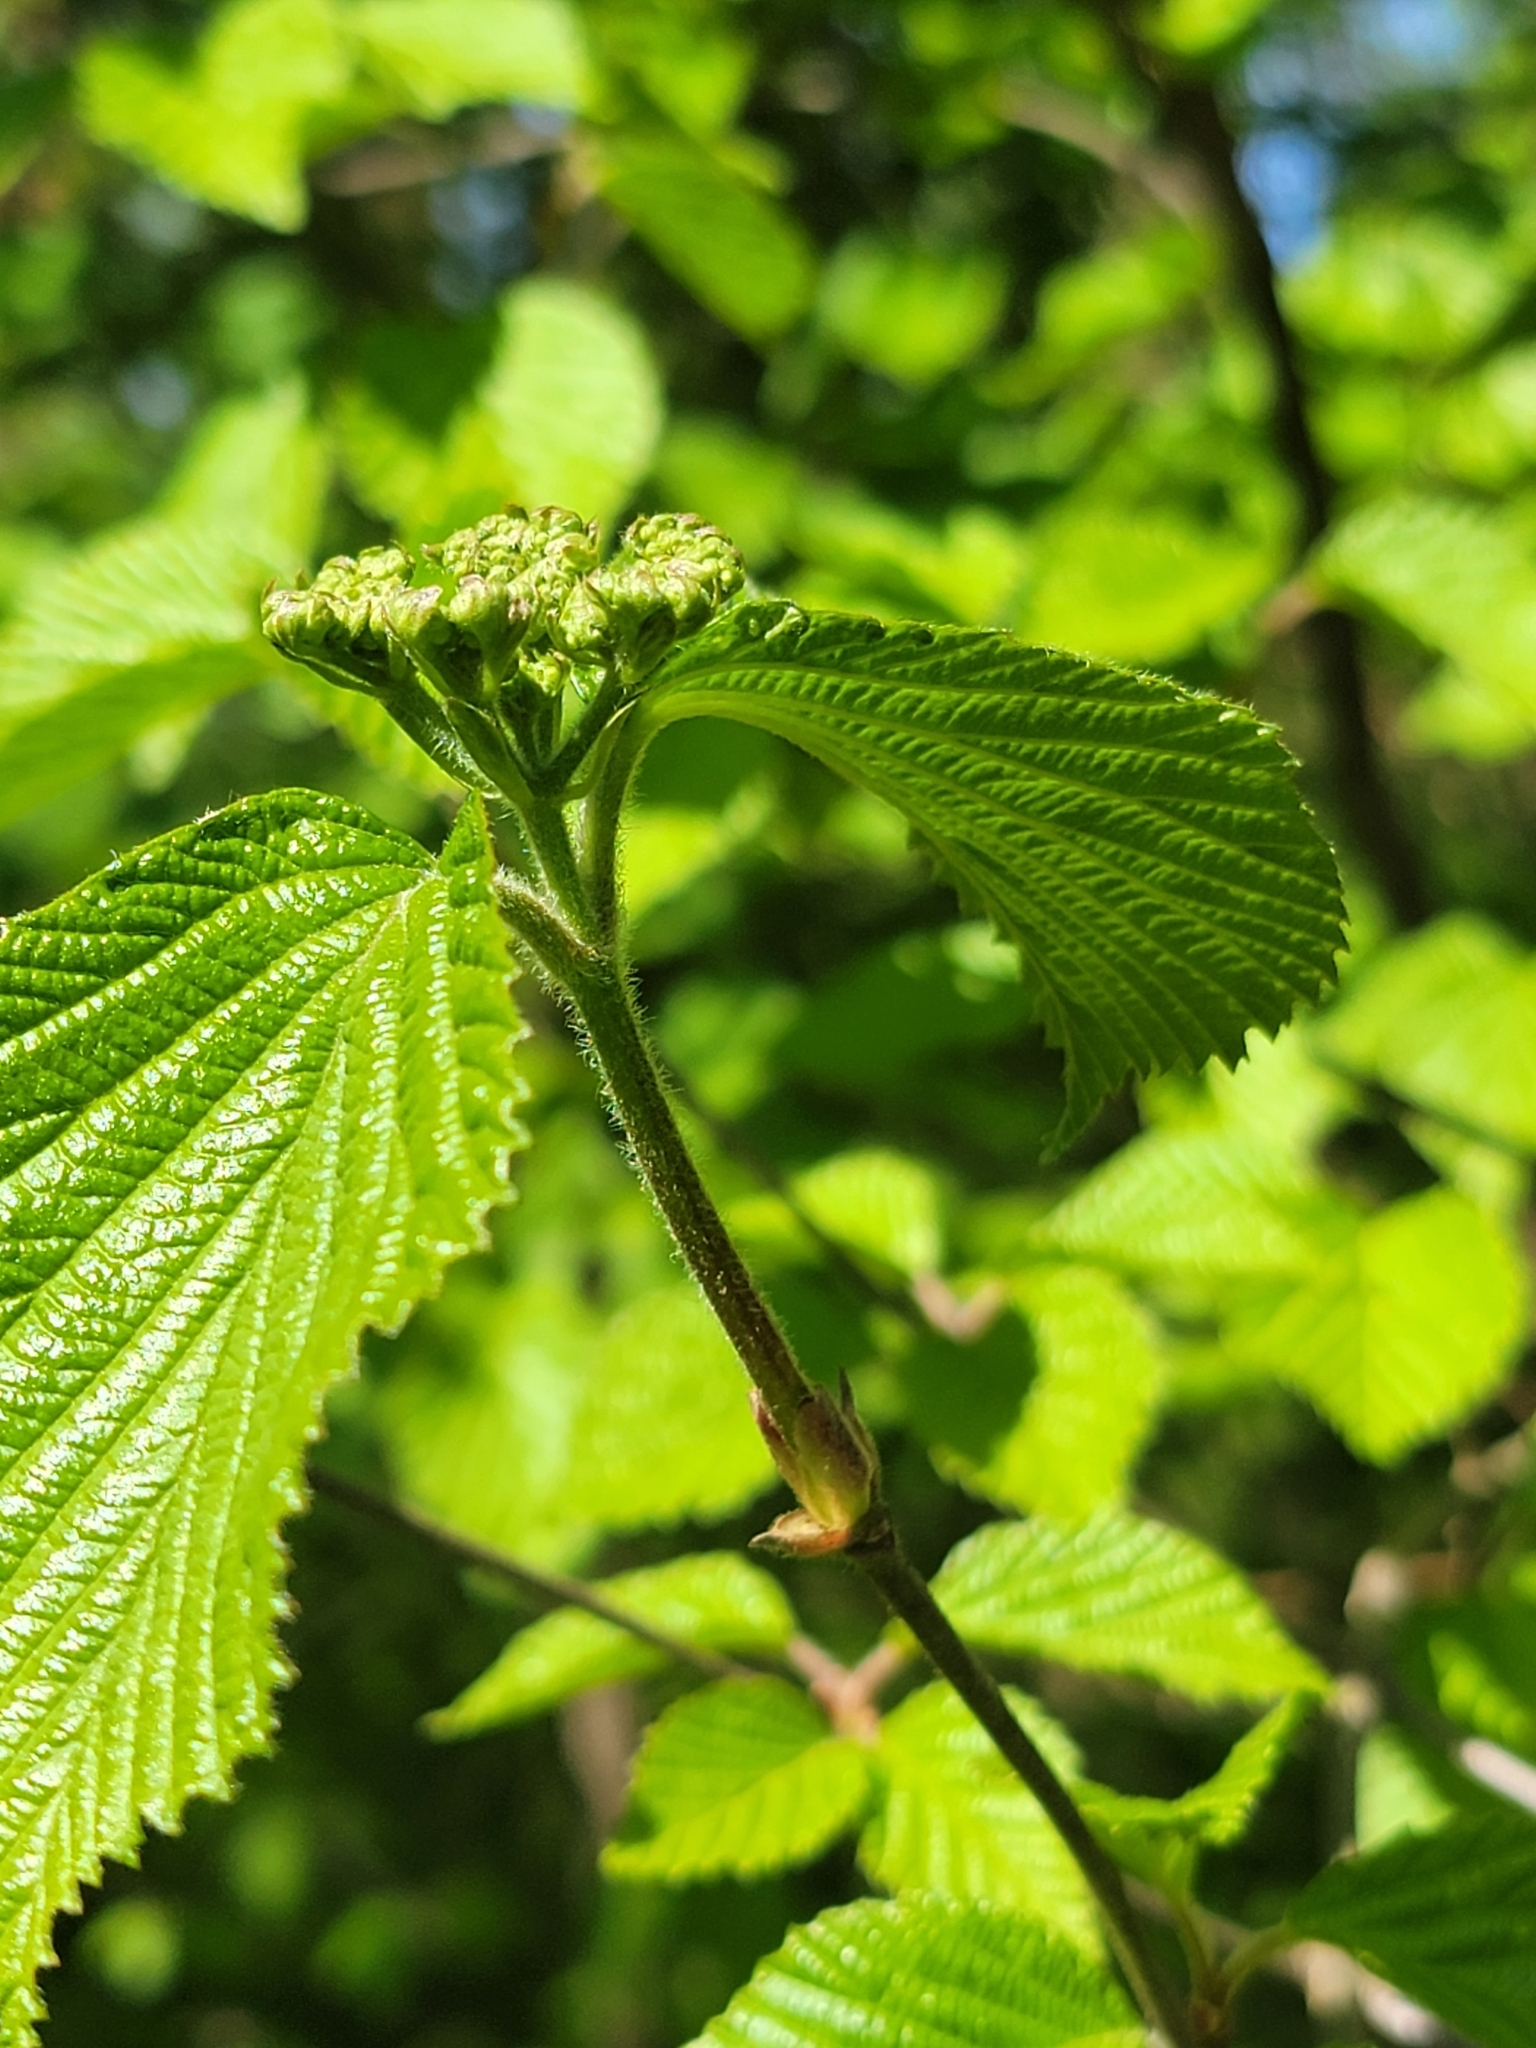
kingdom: Plantae
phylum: Tracheophyta
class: Magnoliopsida
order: Dipsacales
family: Viburnaceae
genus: Viburnum
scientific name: Viburnum dilatatum
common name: Linden arrowwood
